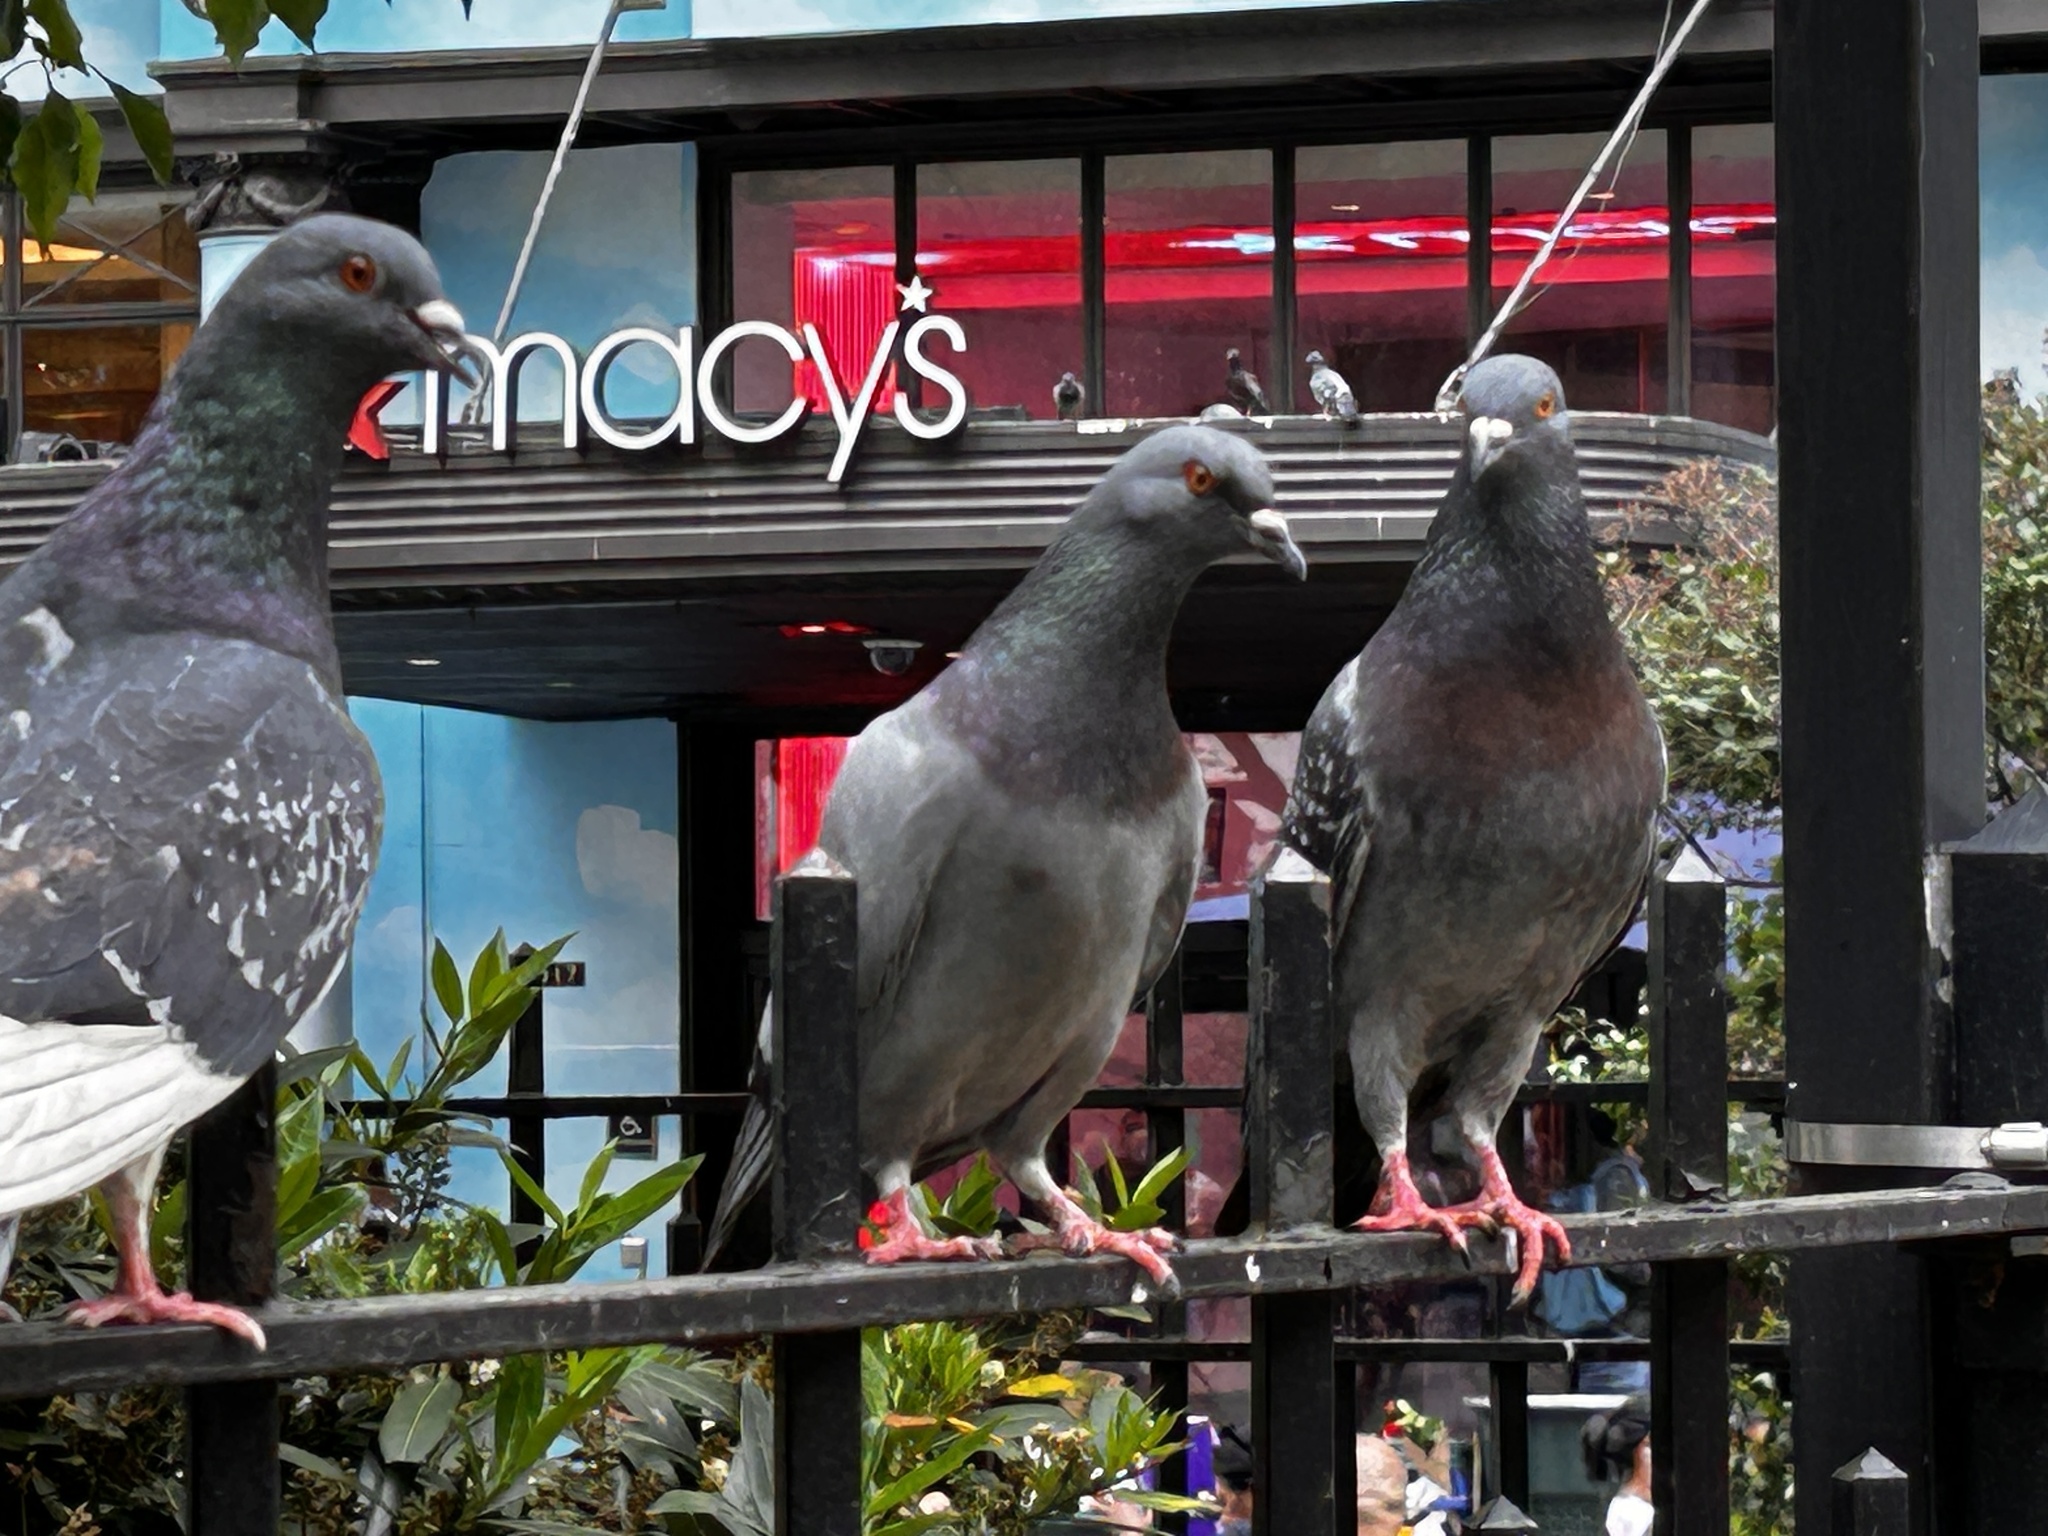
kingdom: Animalia
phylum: Chordata
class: Aves
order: Columbiformes
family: Columbidae
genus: Columba
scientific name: Columba livia
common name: Rock pigeon
